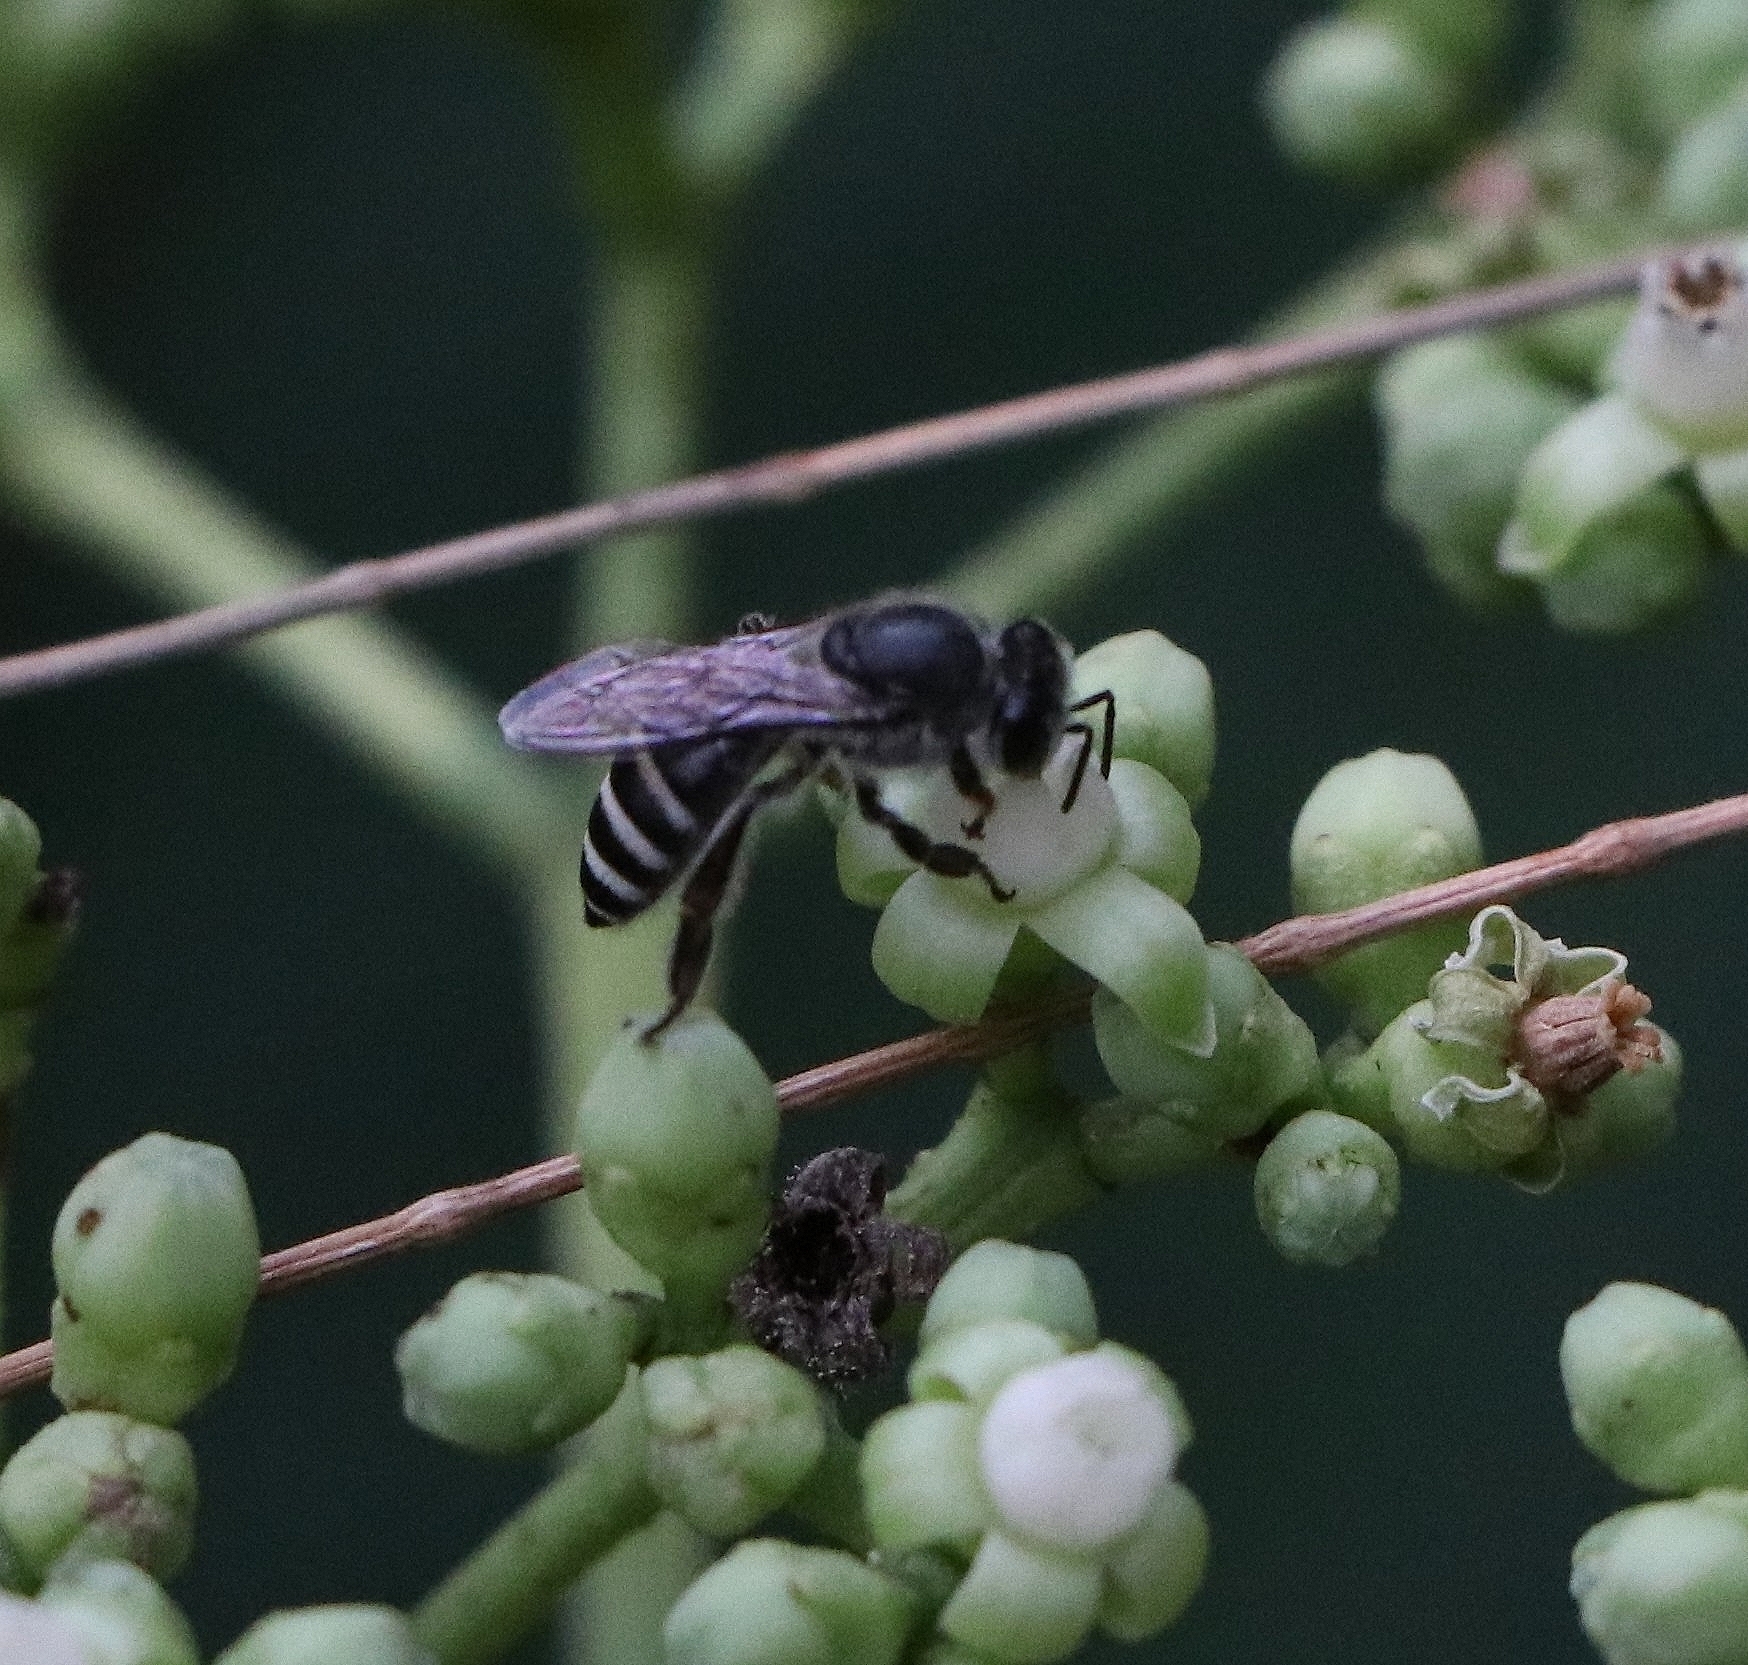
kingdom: Animalia
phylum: Arthropoda
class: Insecta
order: Hymenoptera
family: Apidae
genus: Apis
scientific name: Apis florea
